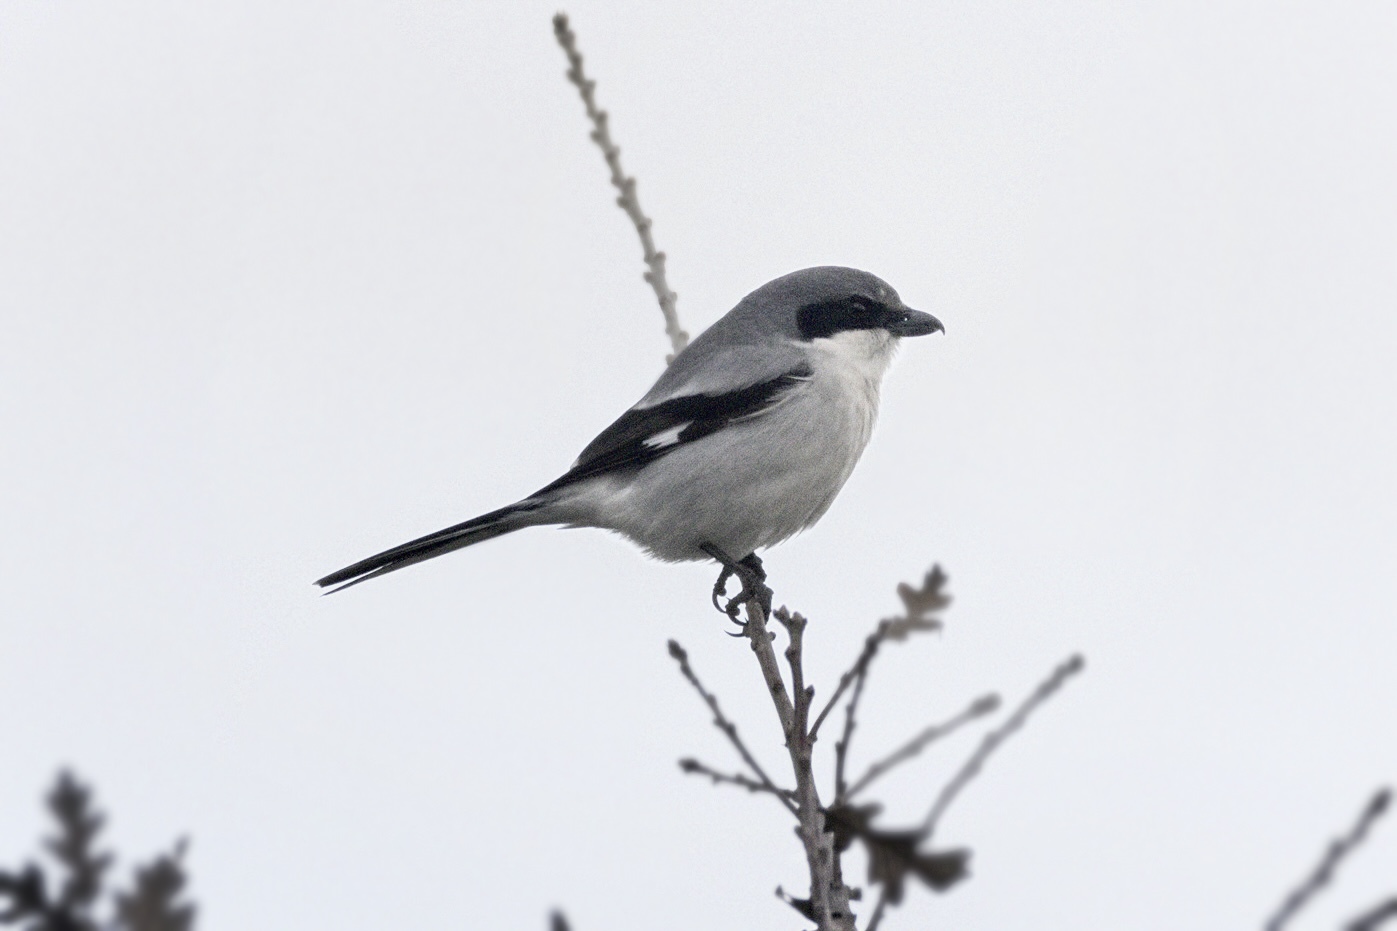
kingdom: Animalia
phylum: Chordata
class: Aves
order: Passeriformes
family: Laniidae
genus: Lanius
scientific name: Lanius ludovicianus
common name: Loggerhead shrike
